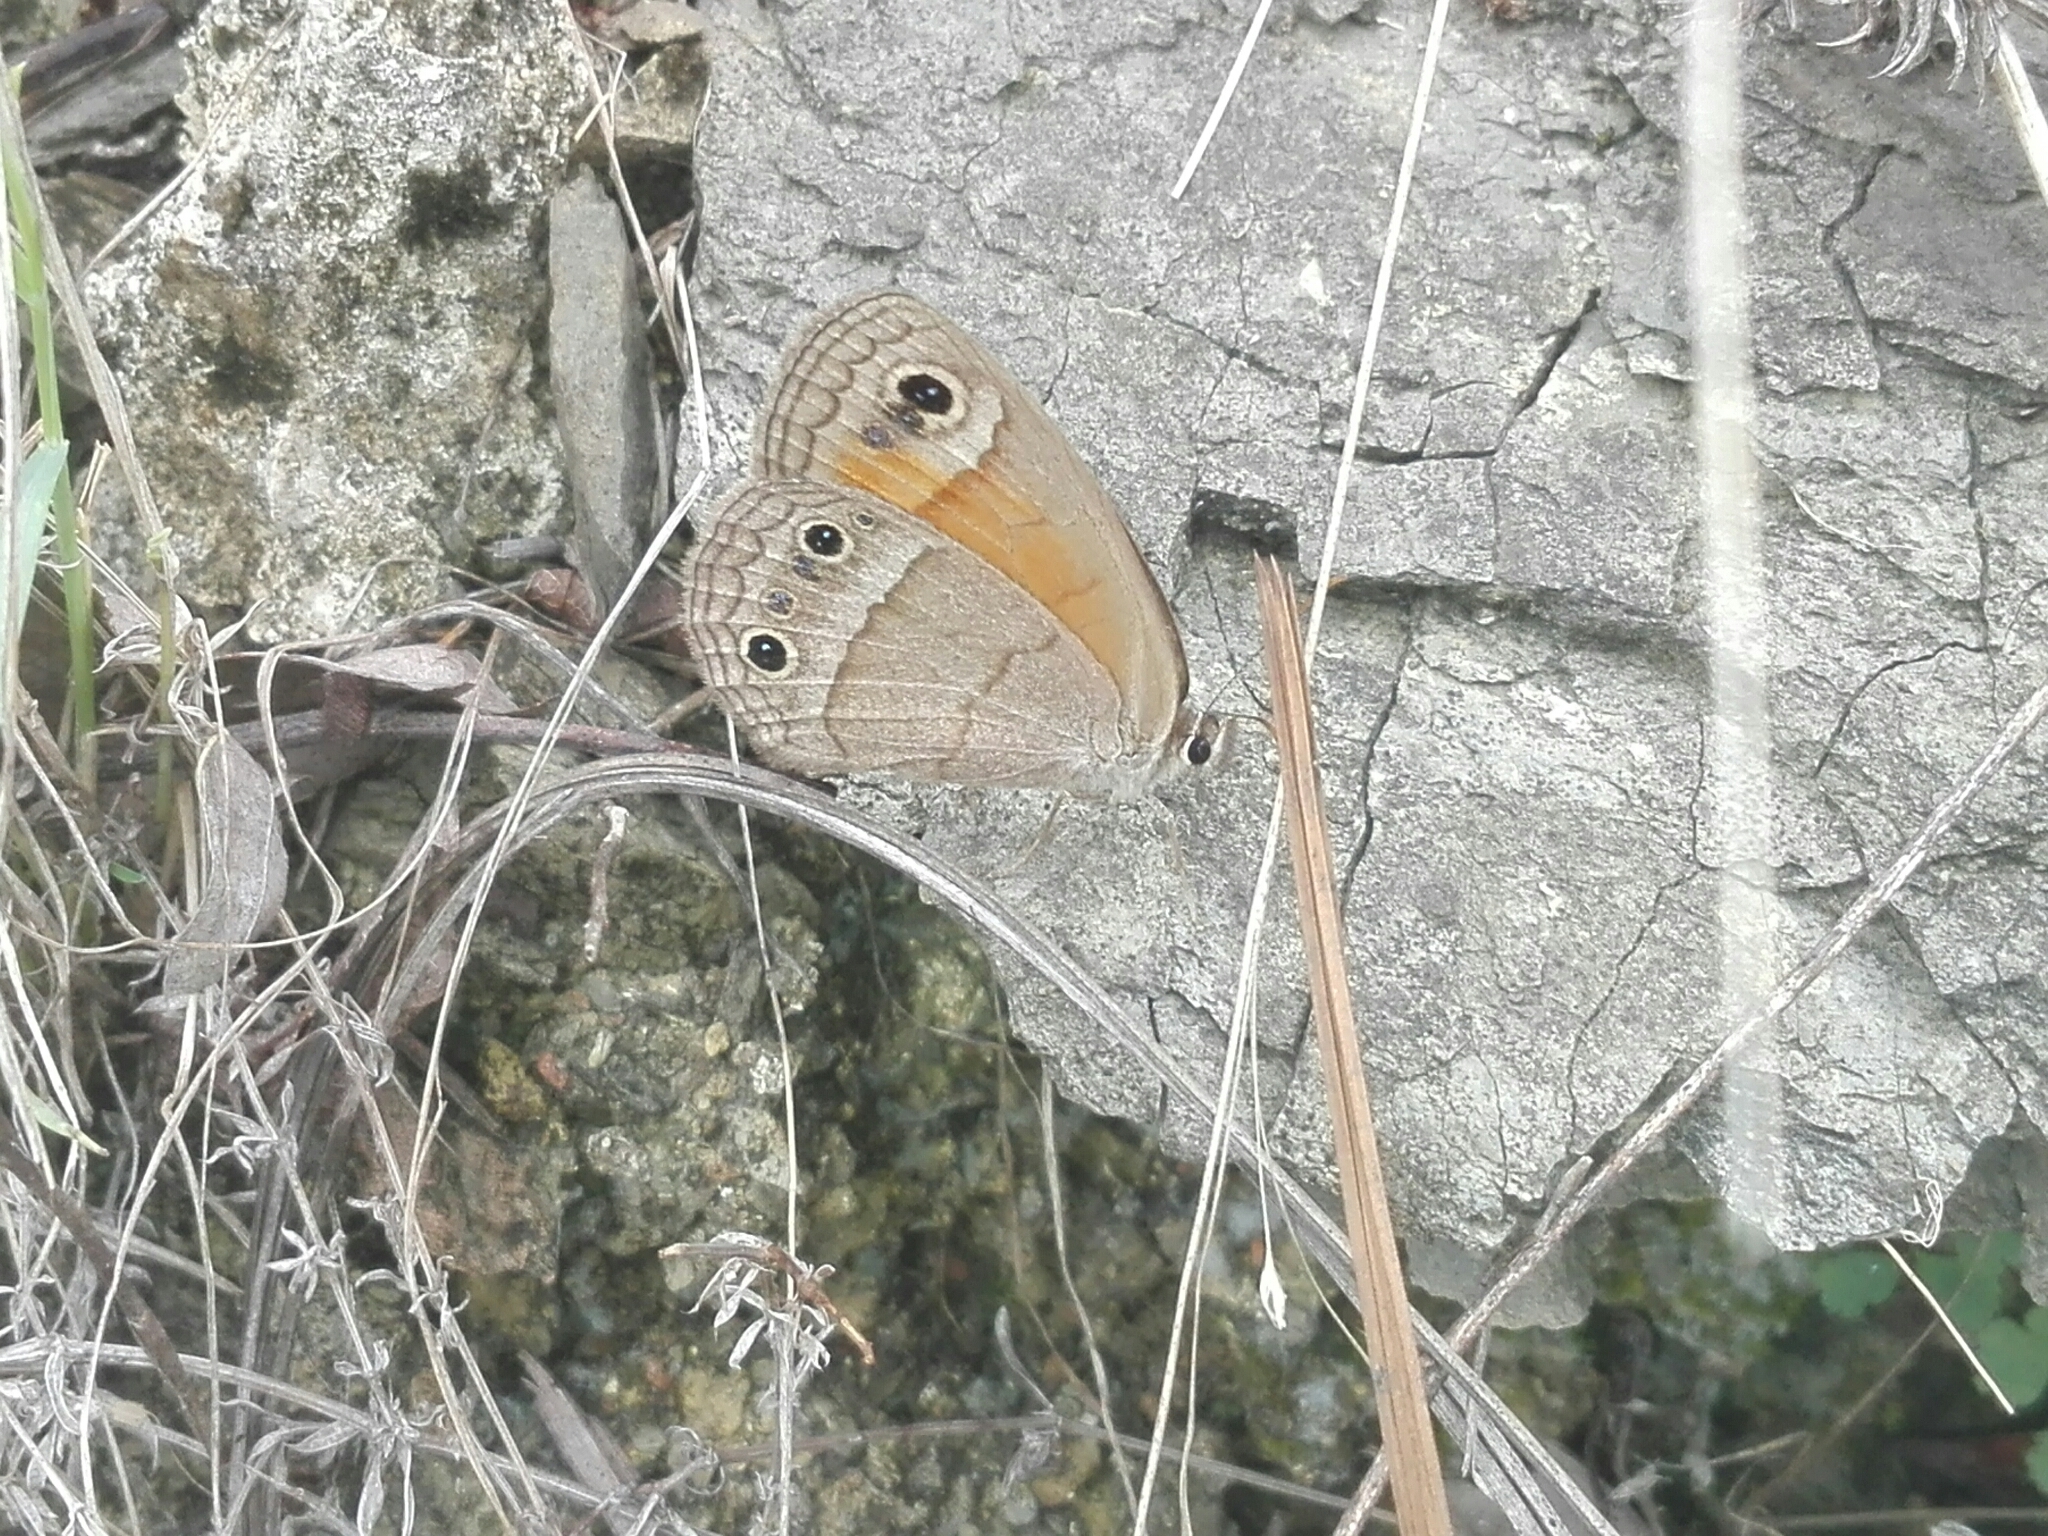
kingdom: Animalia
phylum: Arthropoda
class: Insecta
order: Lepidoptera
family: Nymphalidae
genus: Euptychia
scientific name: Euptychia Cissia rubricata
